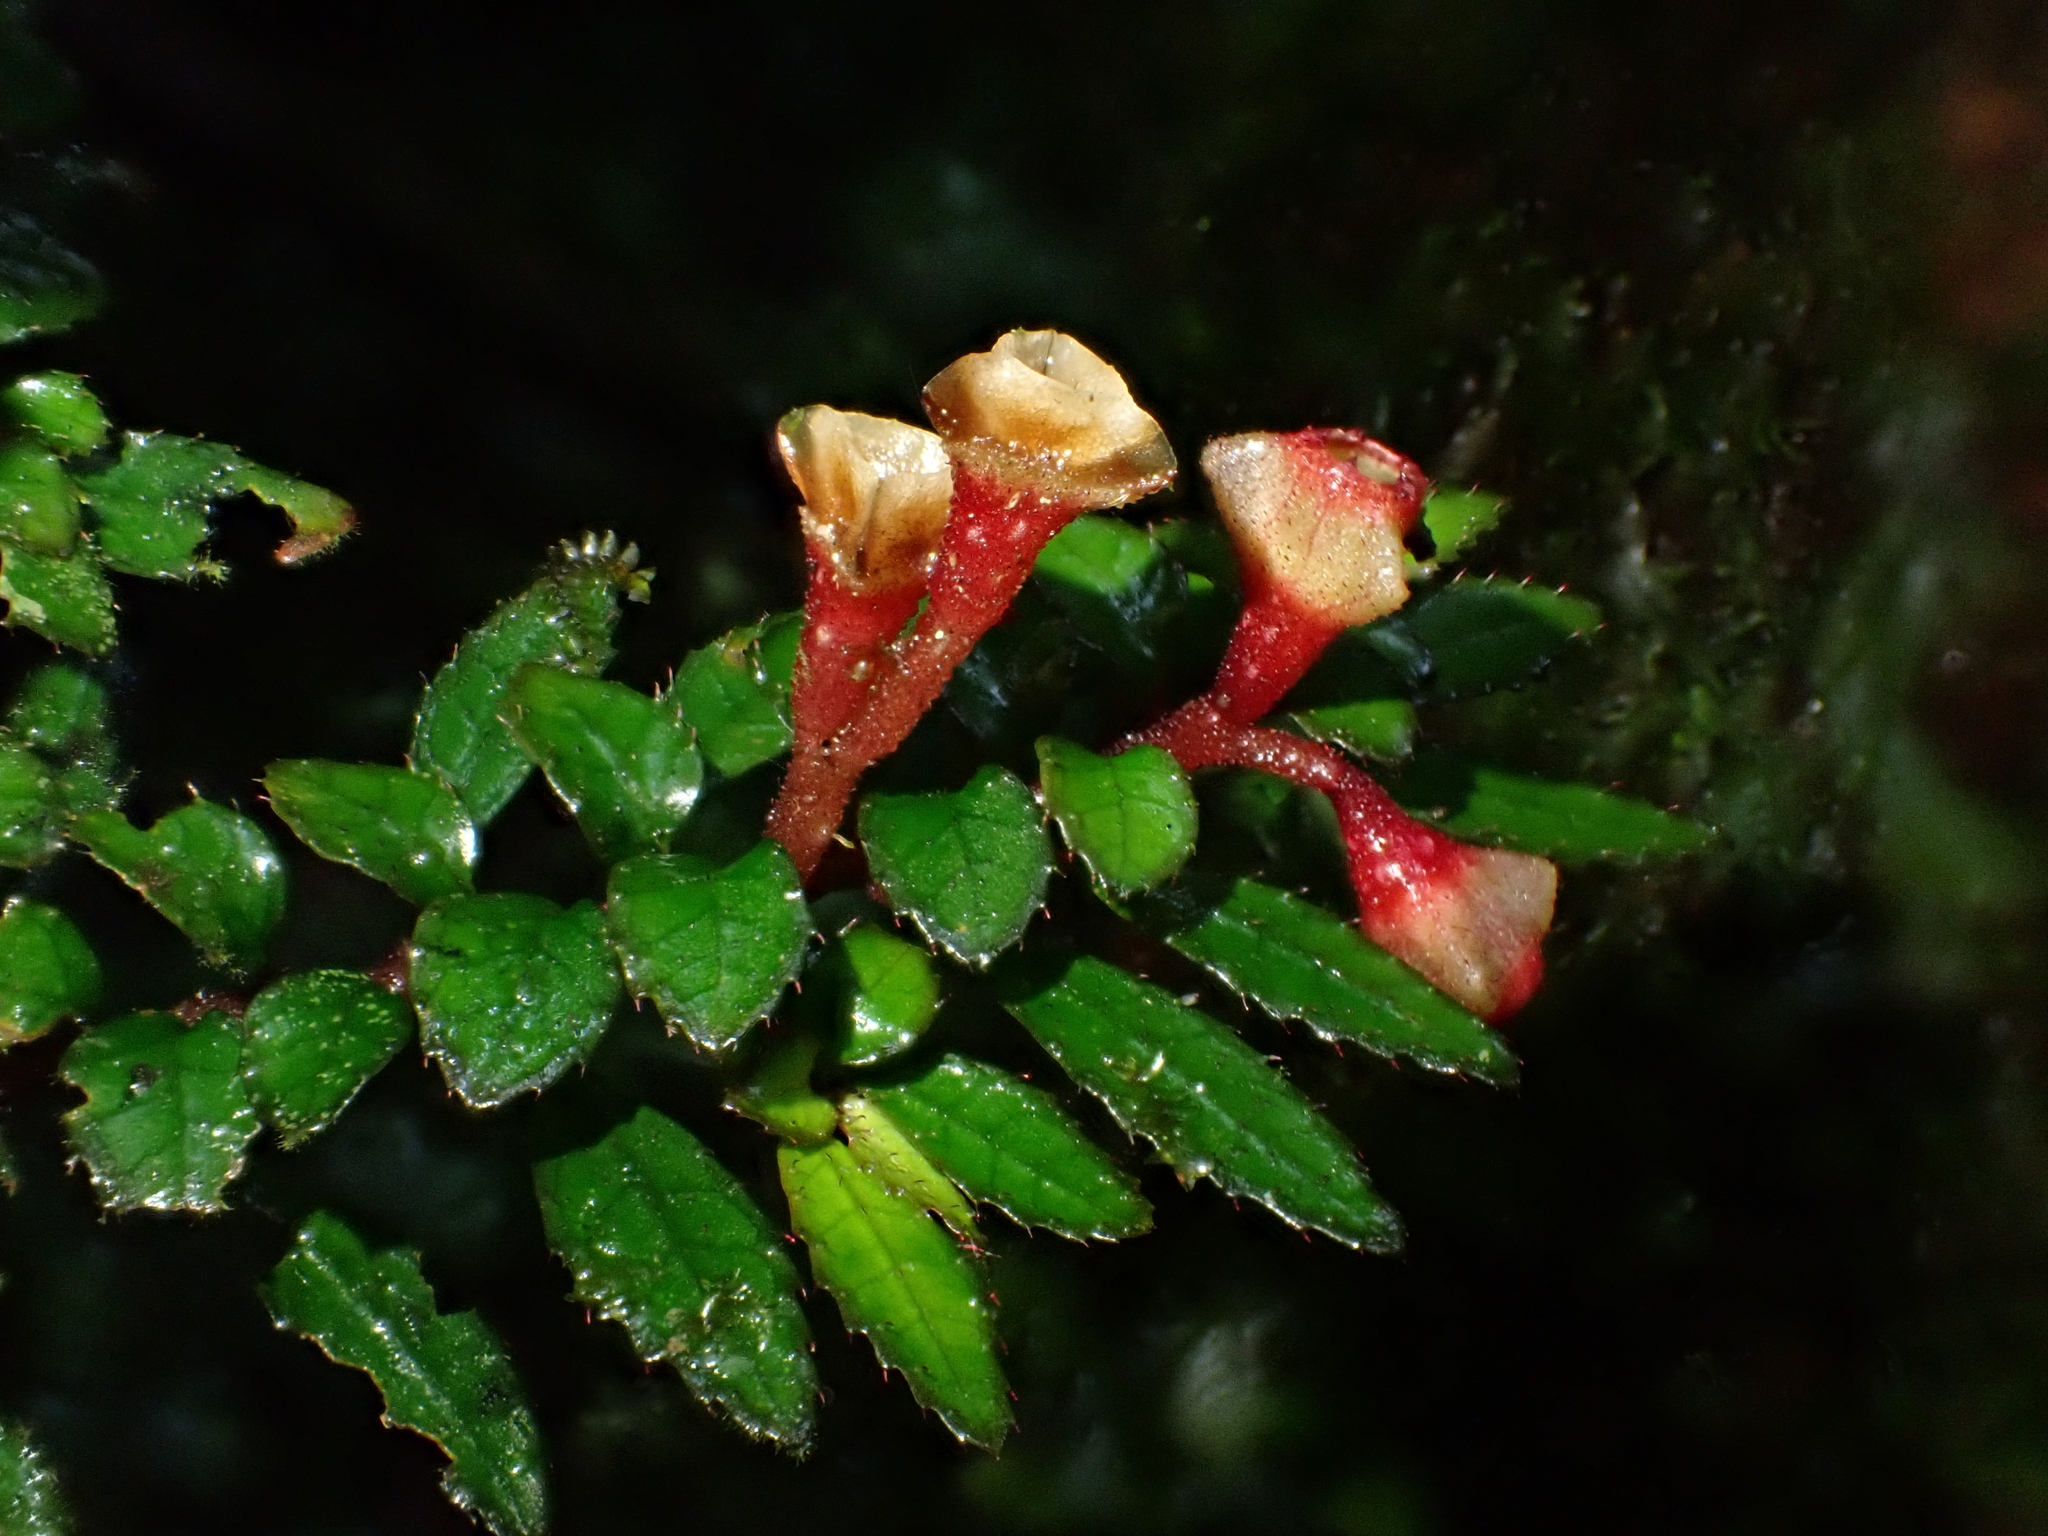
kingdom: Plantae
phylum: Tracheophyta
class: Magnoliopsida
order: Myrtales
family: Melastomataceae
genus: Triolena
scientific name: Triolena pileoides
